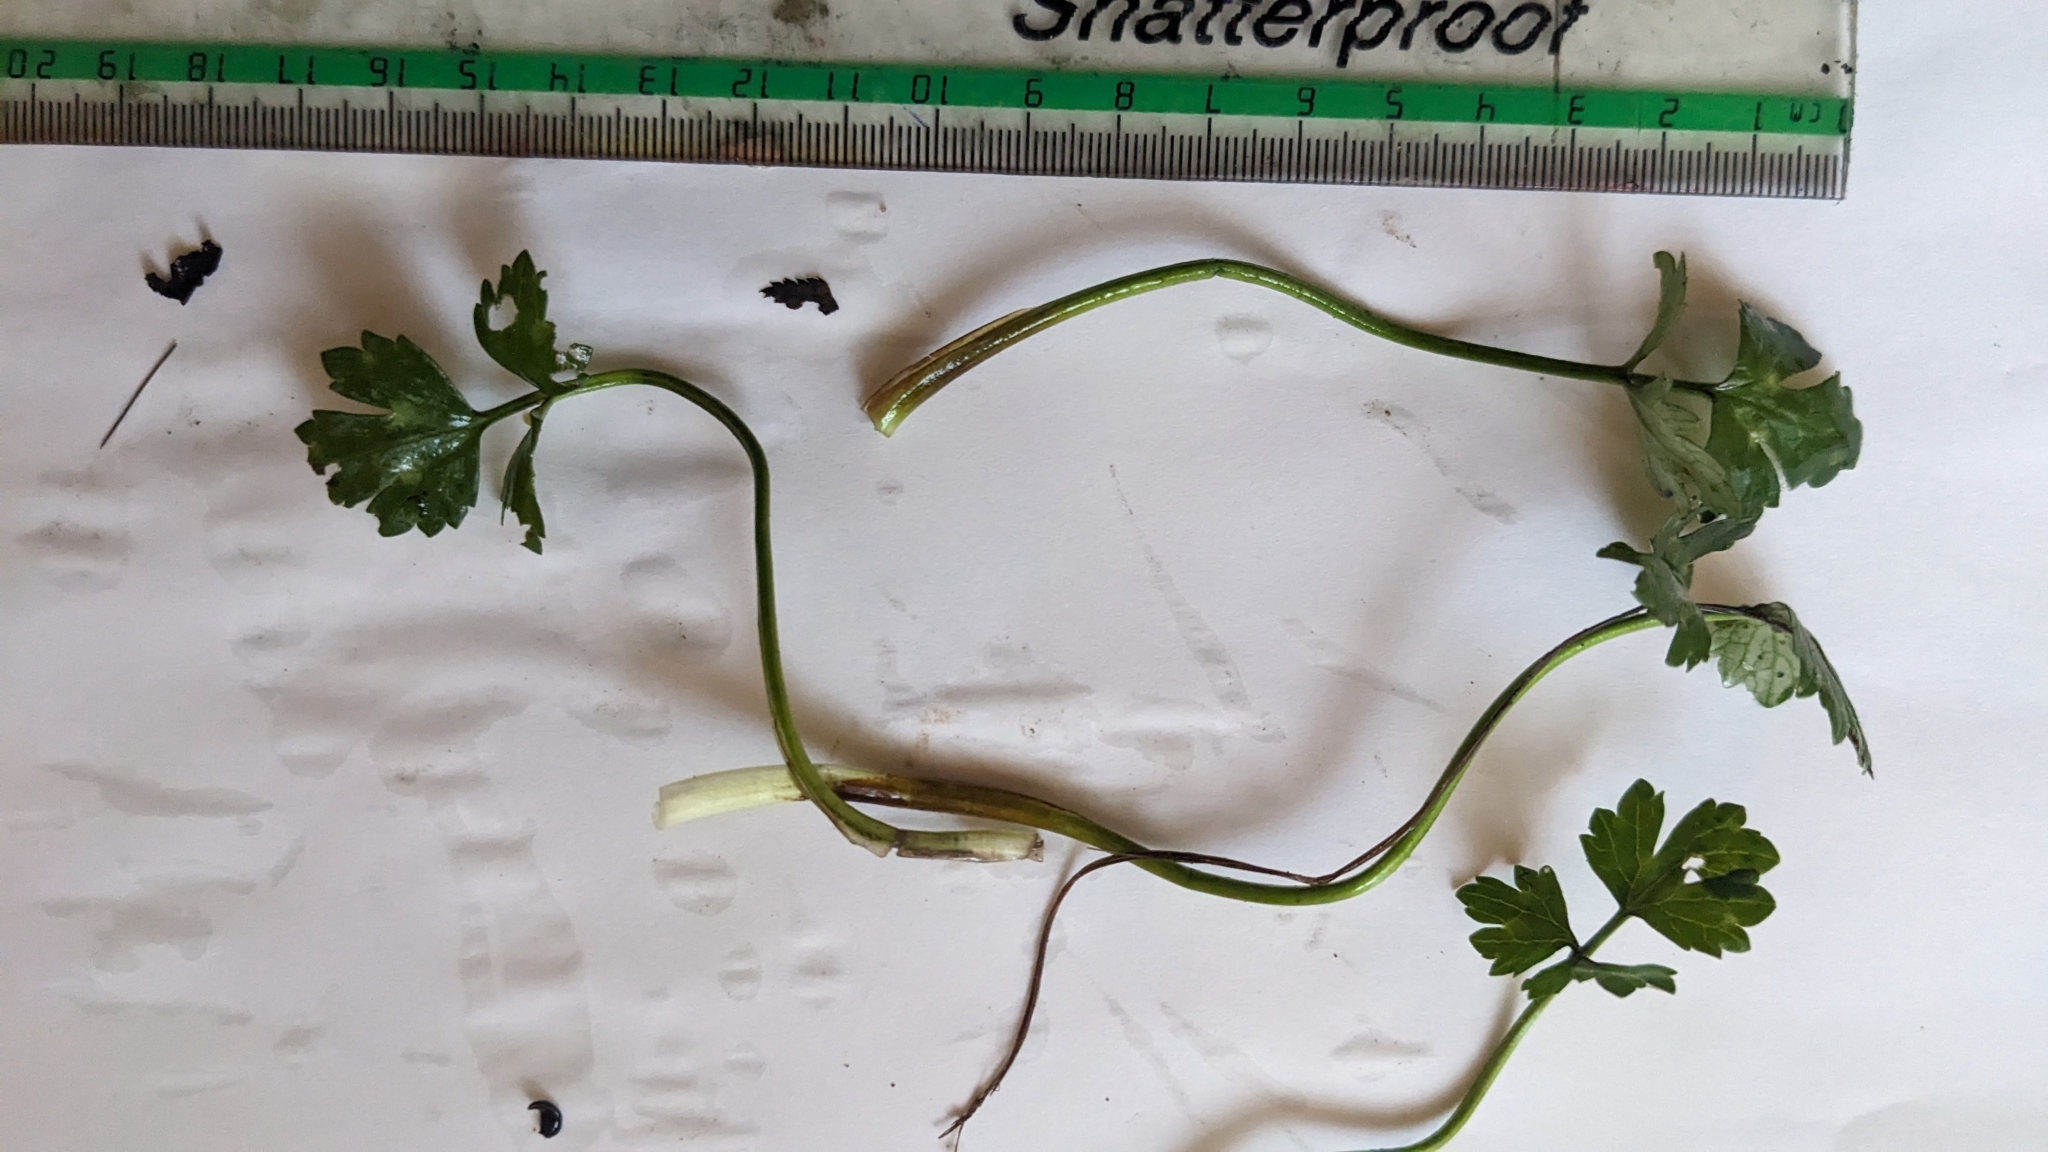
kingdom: Plantae
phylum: Tracheophyta
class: Magnoliopsida
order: Ranunculales
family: Ranunculaceae
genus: Ranunculus
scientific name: Ranunculus repens
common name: Creeping buttercup
